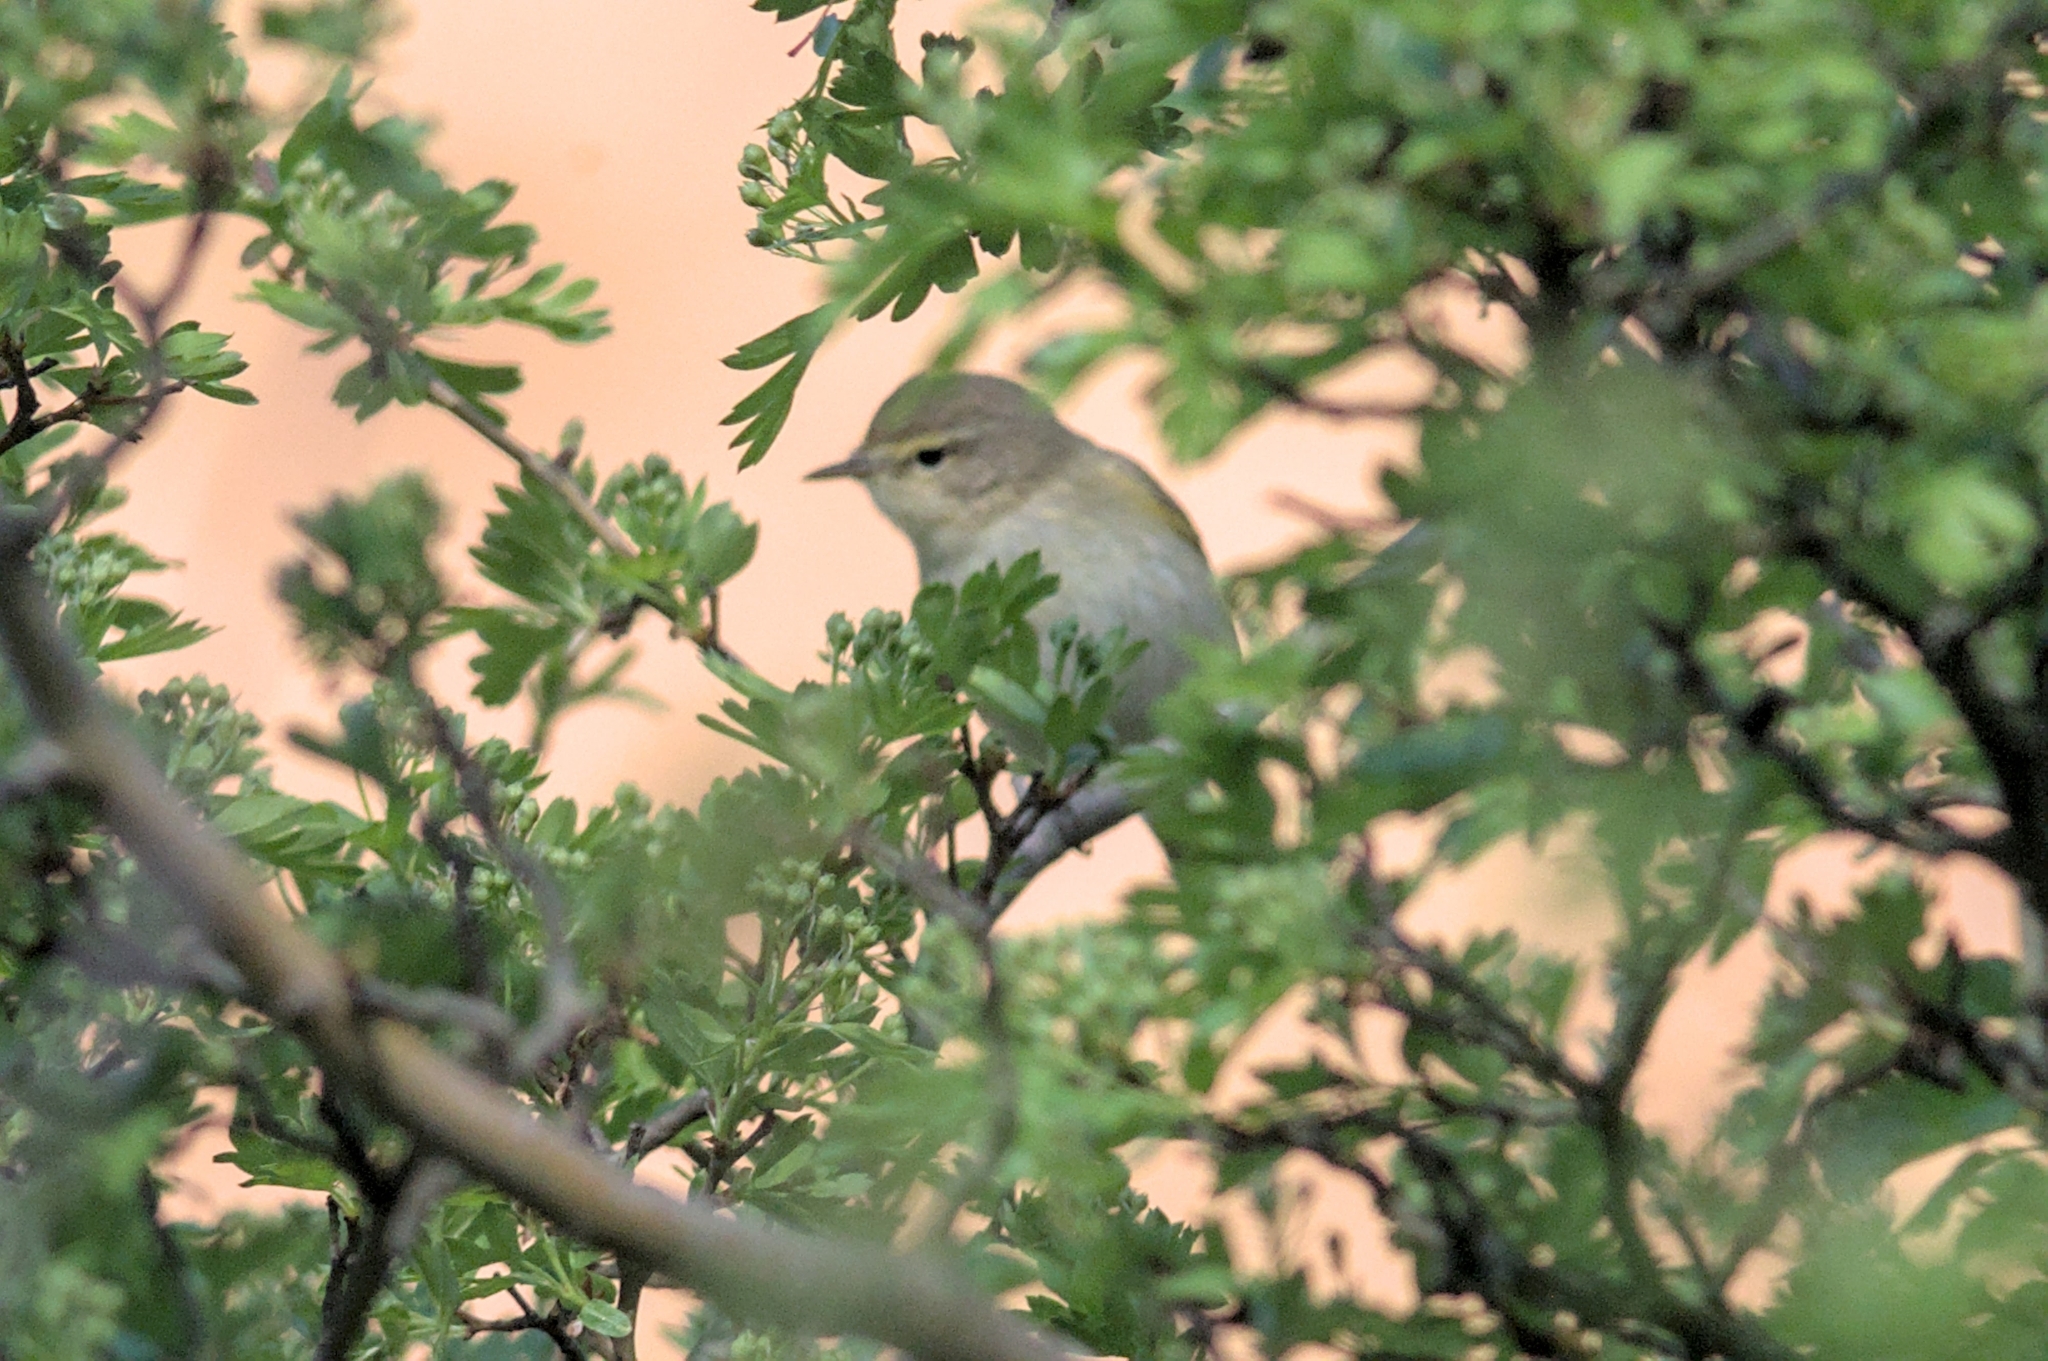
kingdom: Animalia
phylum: Chordata
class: Aves
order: Passeriformes
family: Phylloscopidae
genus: Phylloscopus
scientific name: Phylloscopus bonelli
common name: Western bonelli's warbler
